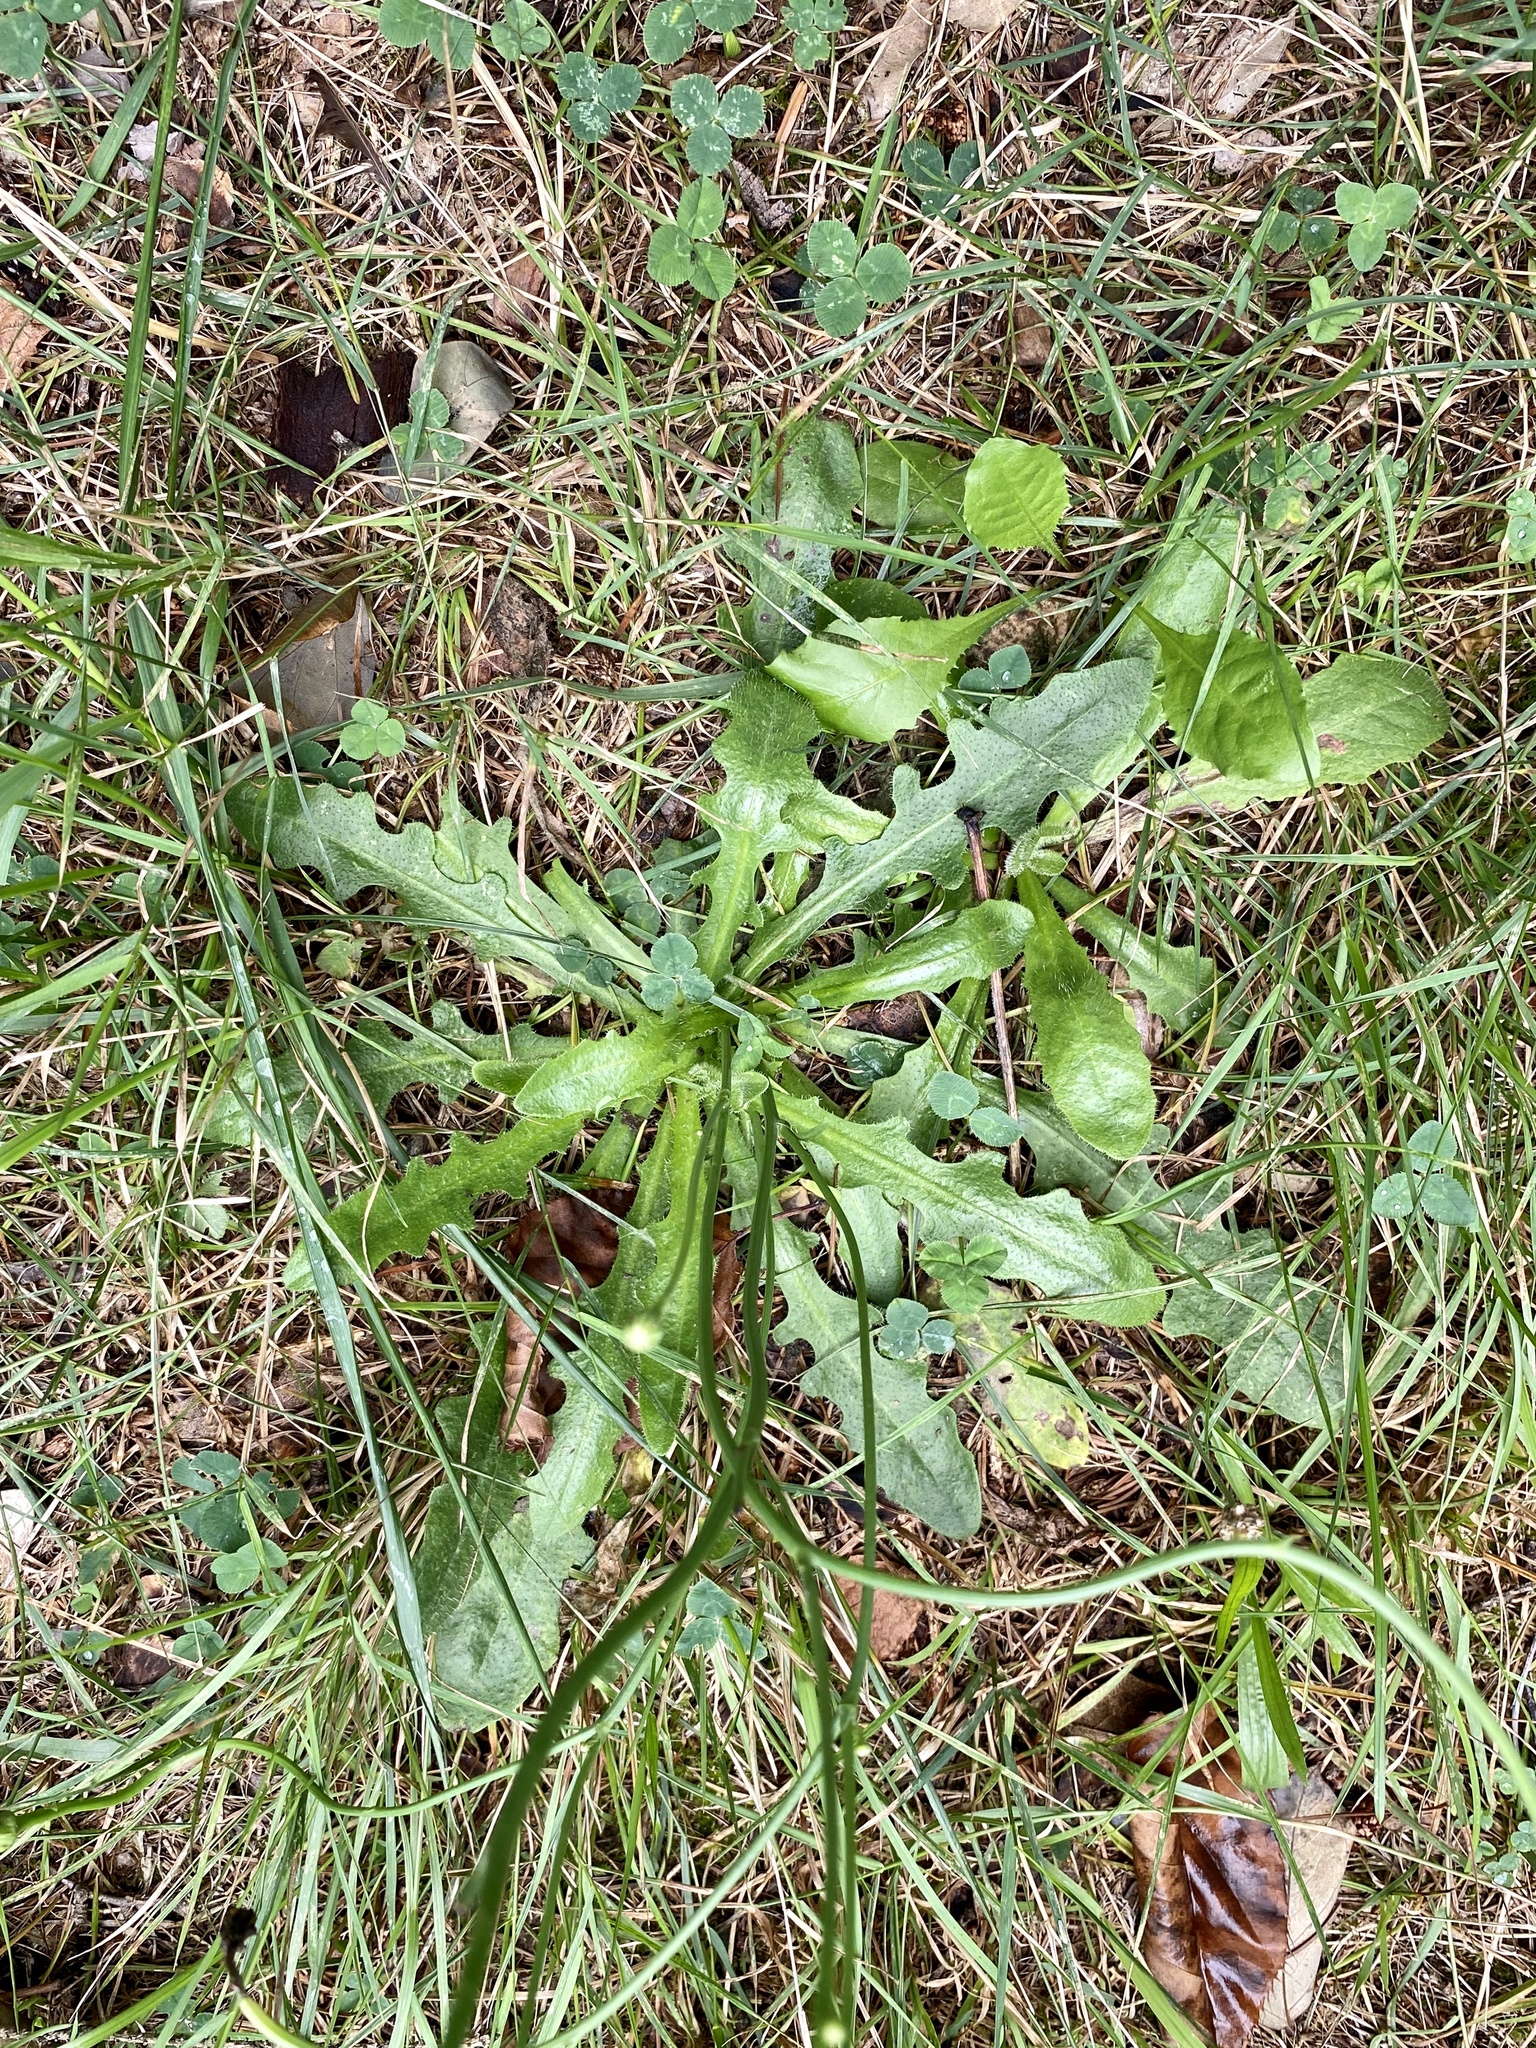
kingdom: Plantae
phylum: Tracheophyta
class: Magnoliopsida
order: Asterales
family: Asteraceae
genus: Hypochaeris
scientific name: Hypochaeris radicata
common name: Flatweed
